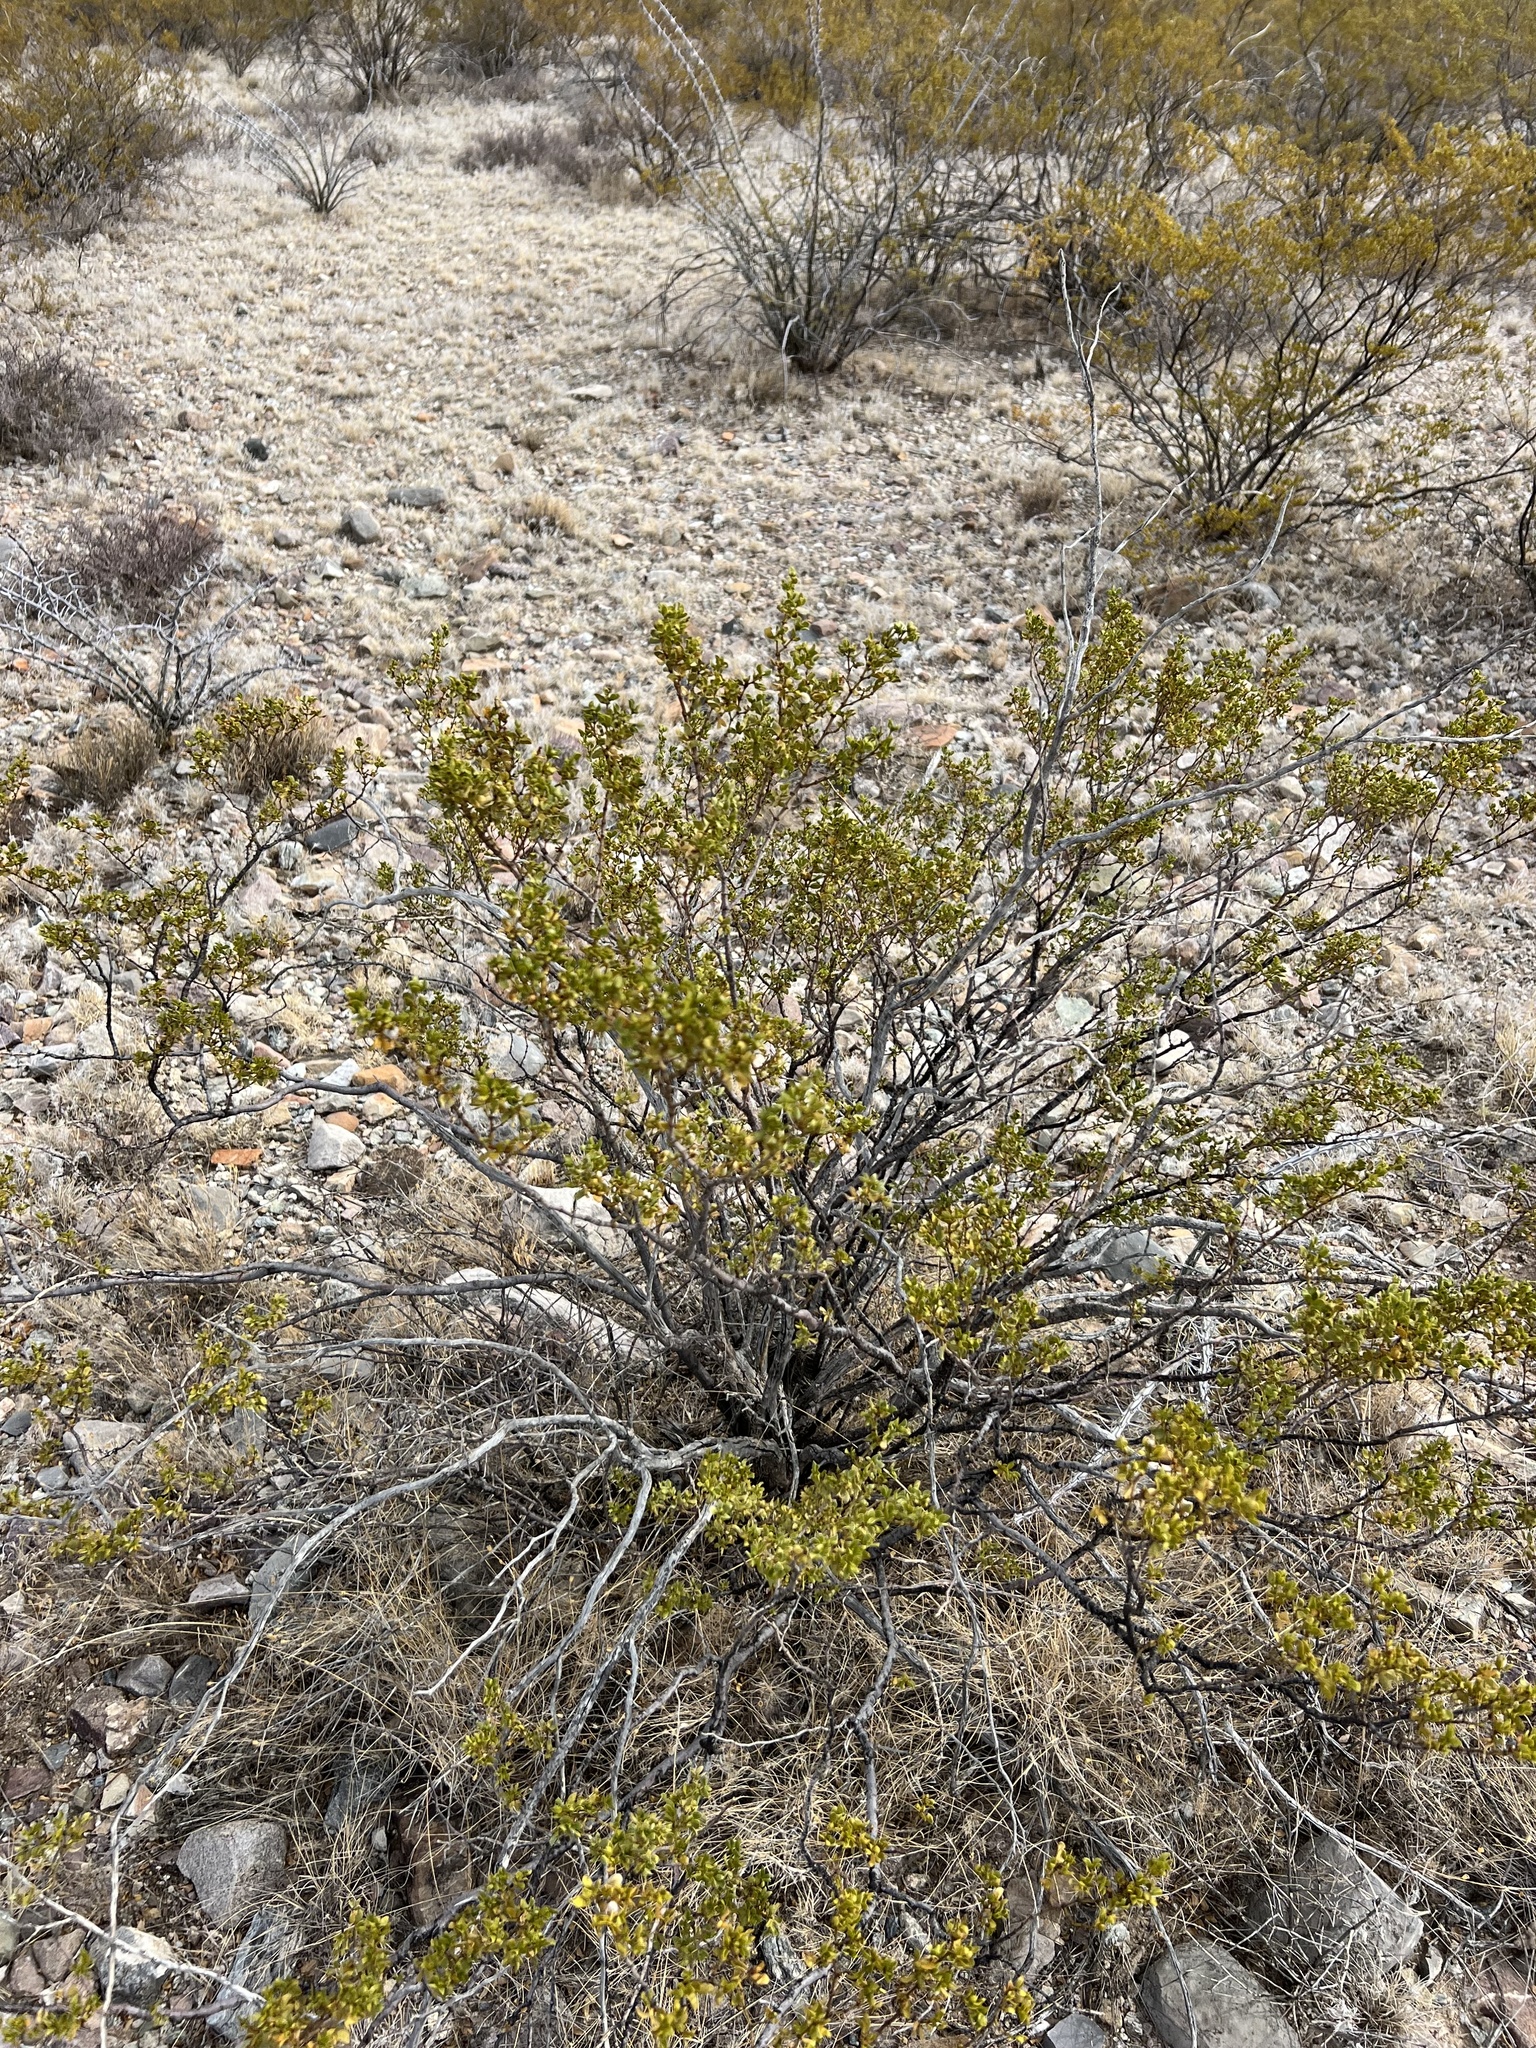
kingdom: Plantae
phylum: Tracheophyta
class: Magnoliopsida
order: Zygophyllales
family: Zygophyllaceae
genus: Larrea
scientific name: Larrea tridentata
